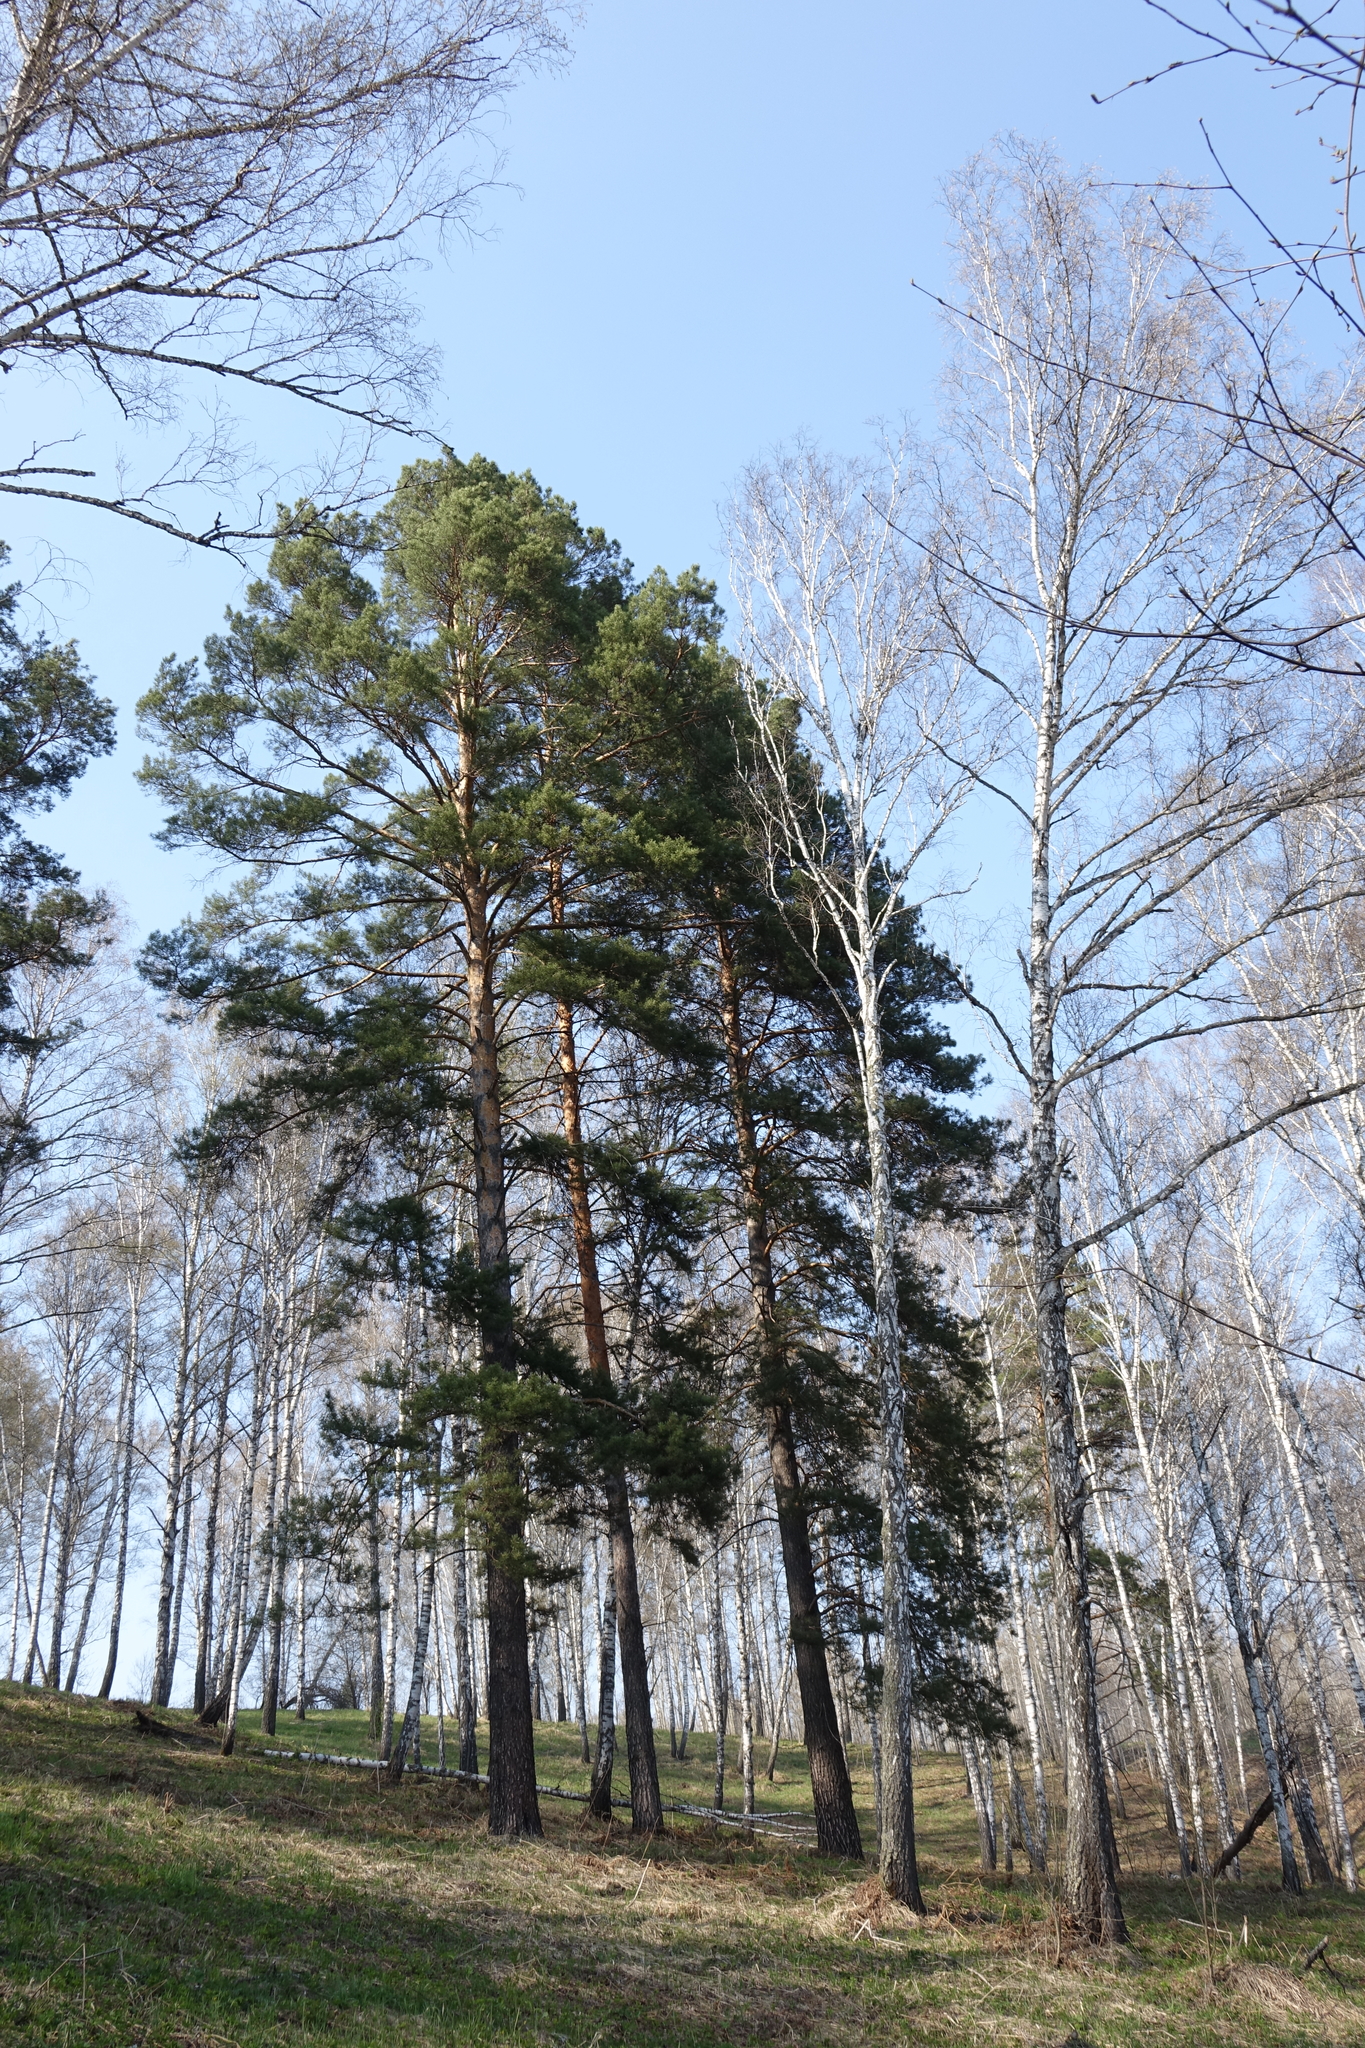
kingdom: Plantae
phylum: Tracheophyta
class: Pinopsida
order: Pinales
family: Pinaceae
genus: Pinus
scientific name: Pinus sylvestris
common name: Scots pine
